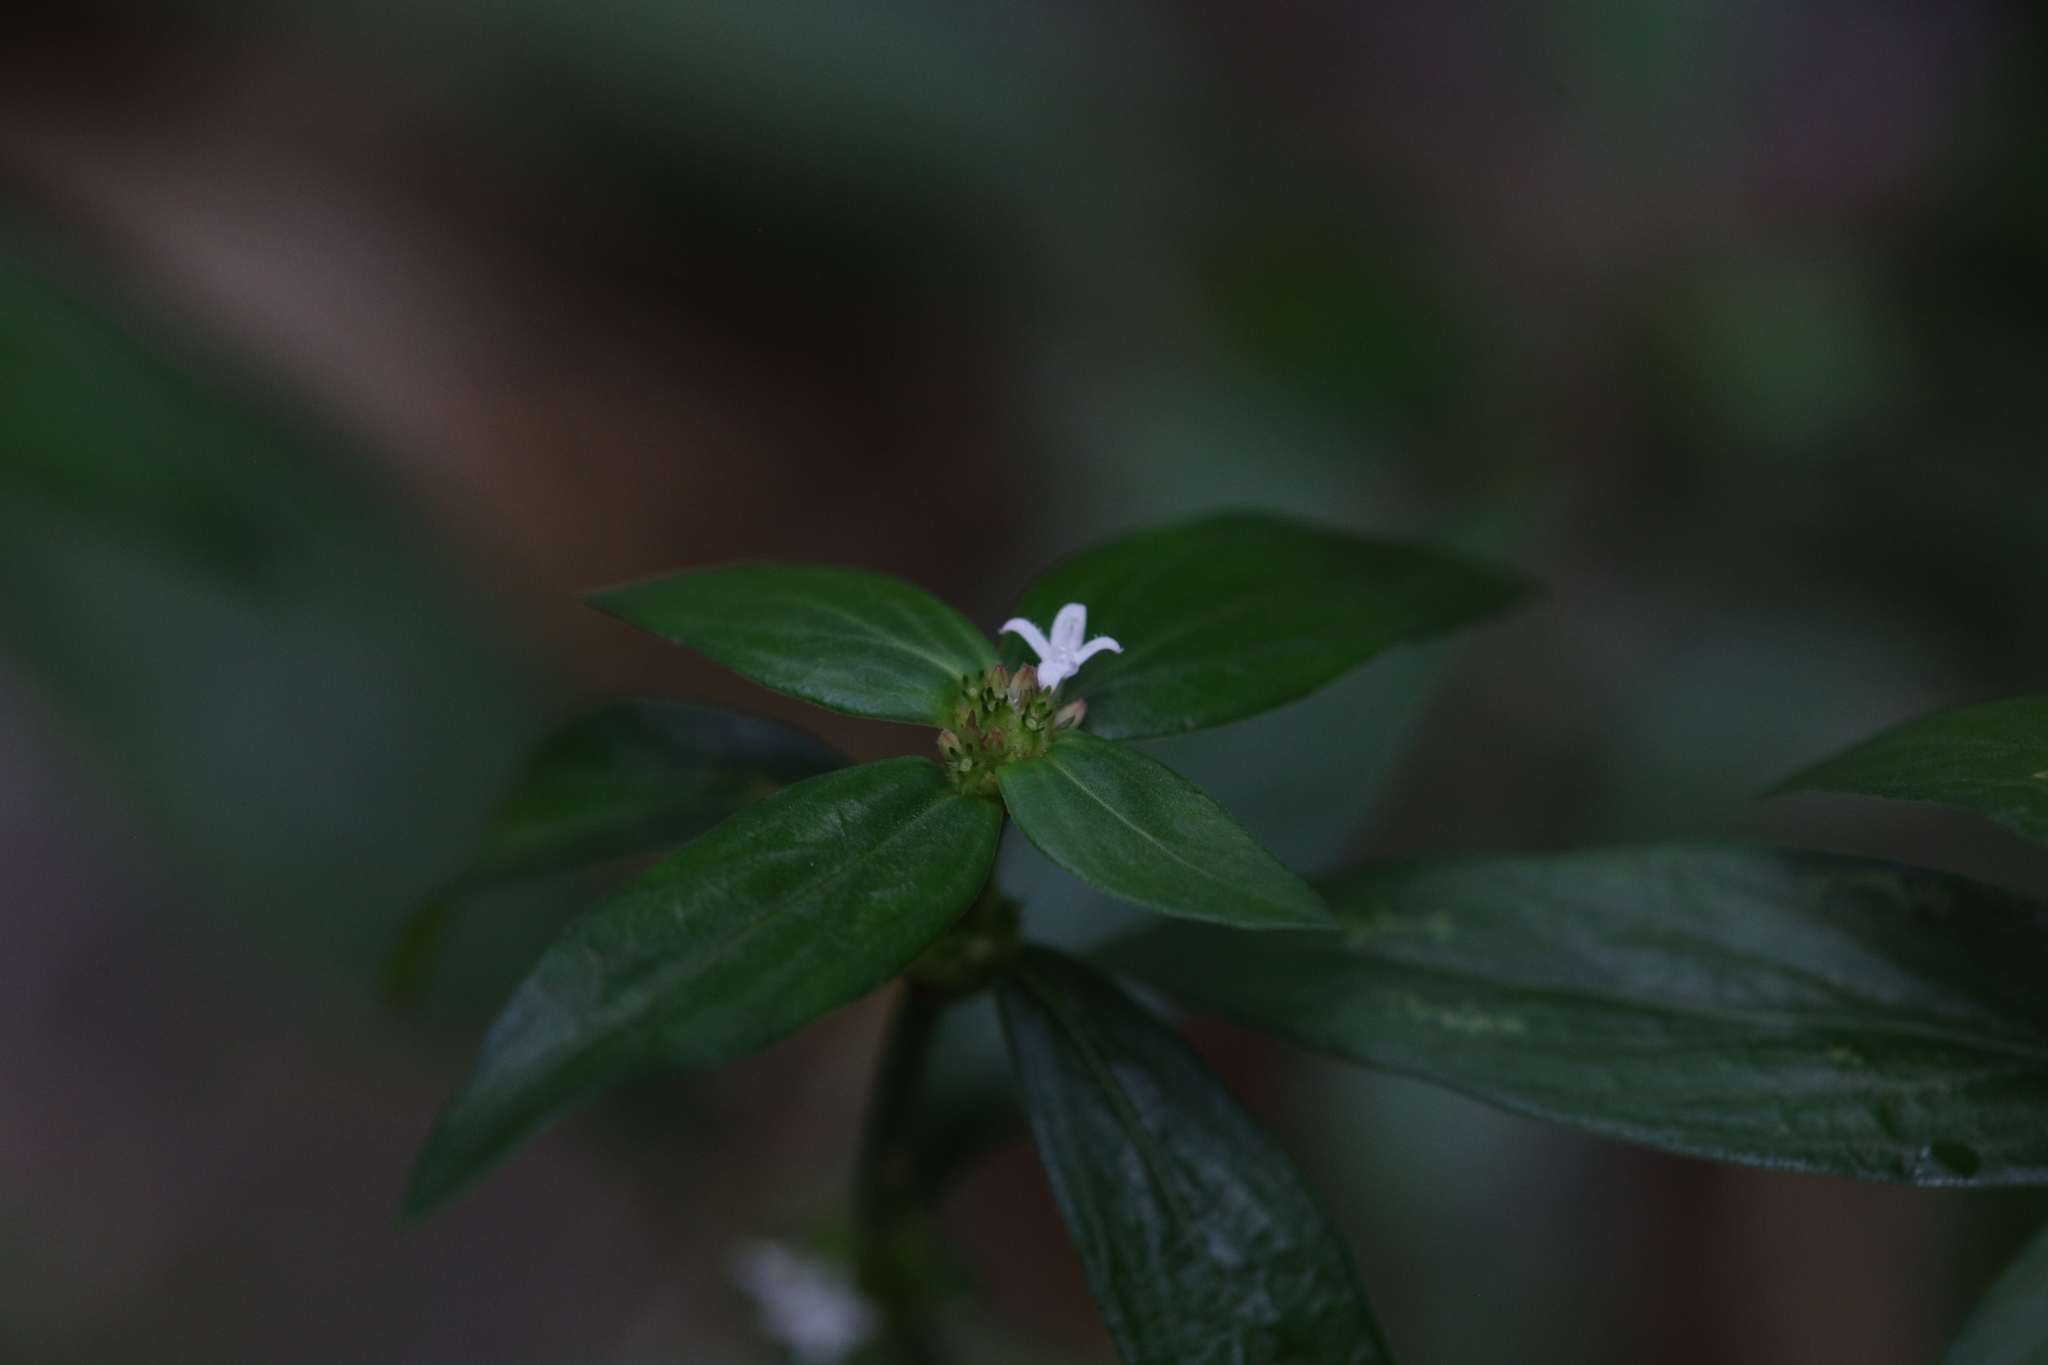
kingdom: Plantae
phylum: Tracheophyta
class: Magnoliopsida
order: Gentianales
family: Rubiaceae
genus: Spermacoce
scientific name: Spermacoce remota
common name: Woodland false buttonweed
